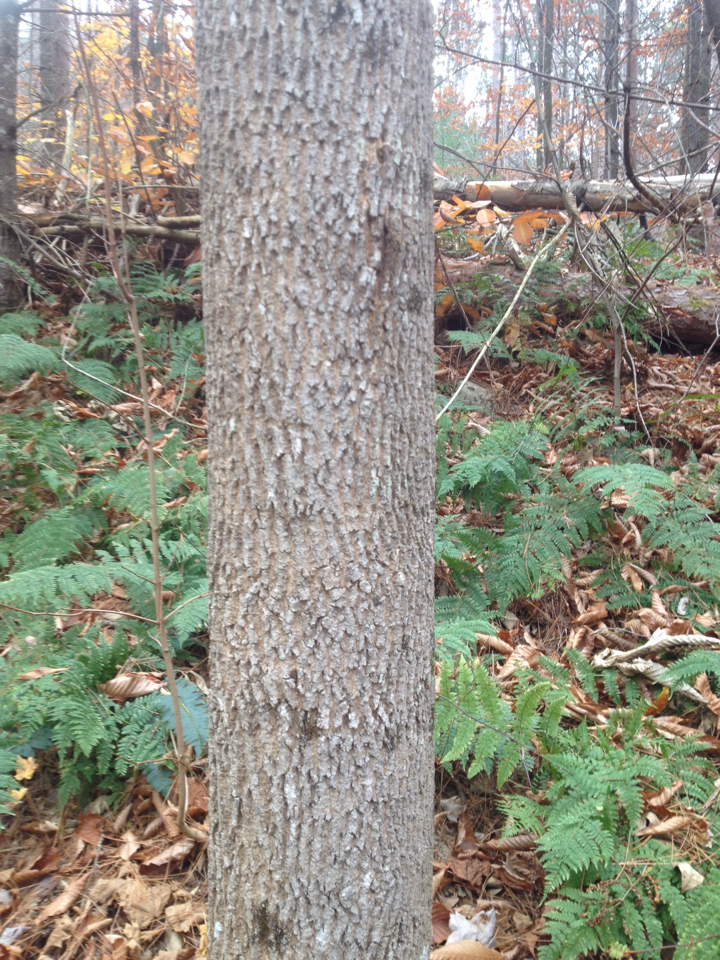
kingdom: Plantae
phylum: Tracheophyta
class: Magnoliopsida
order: Lamiales
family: Oleaceae
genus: Fraxinus
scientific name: Fraxinus americana
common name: White ash
